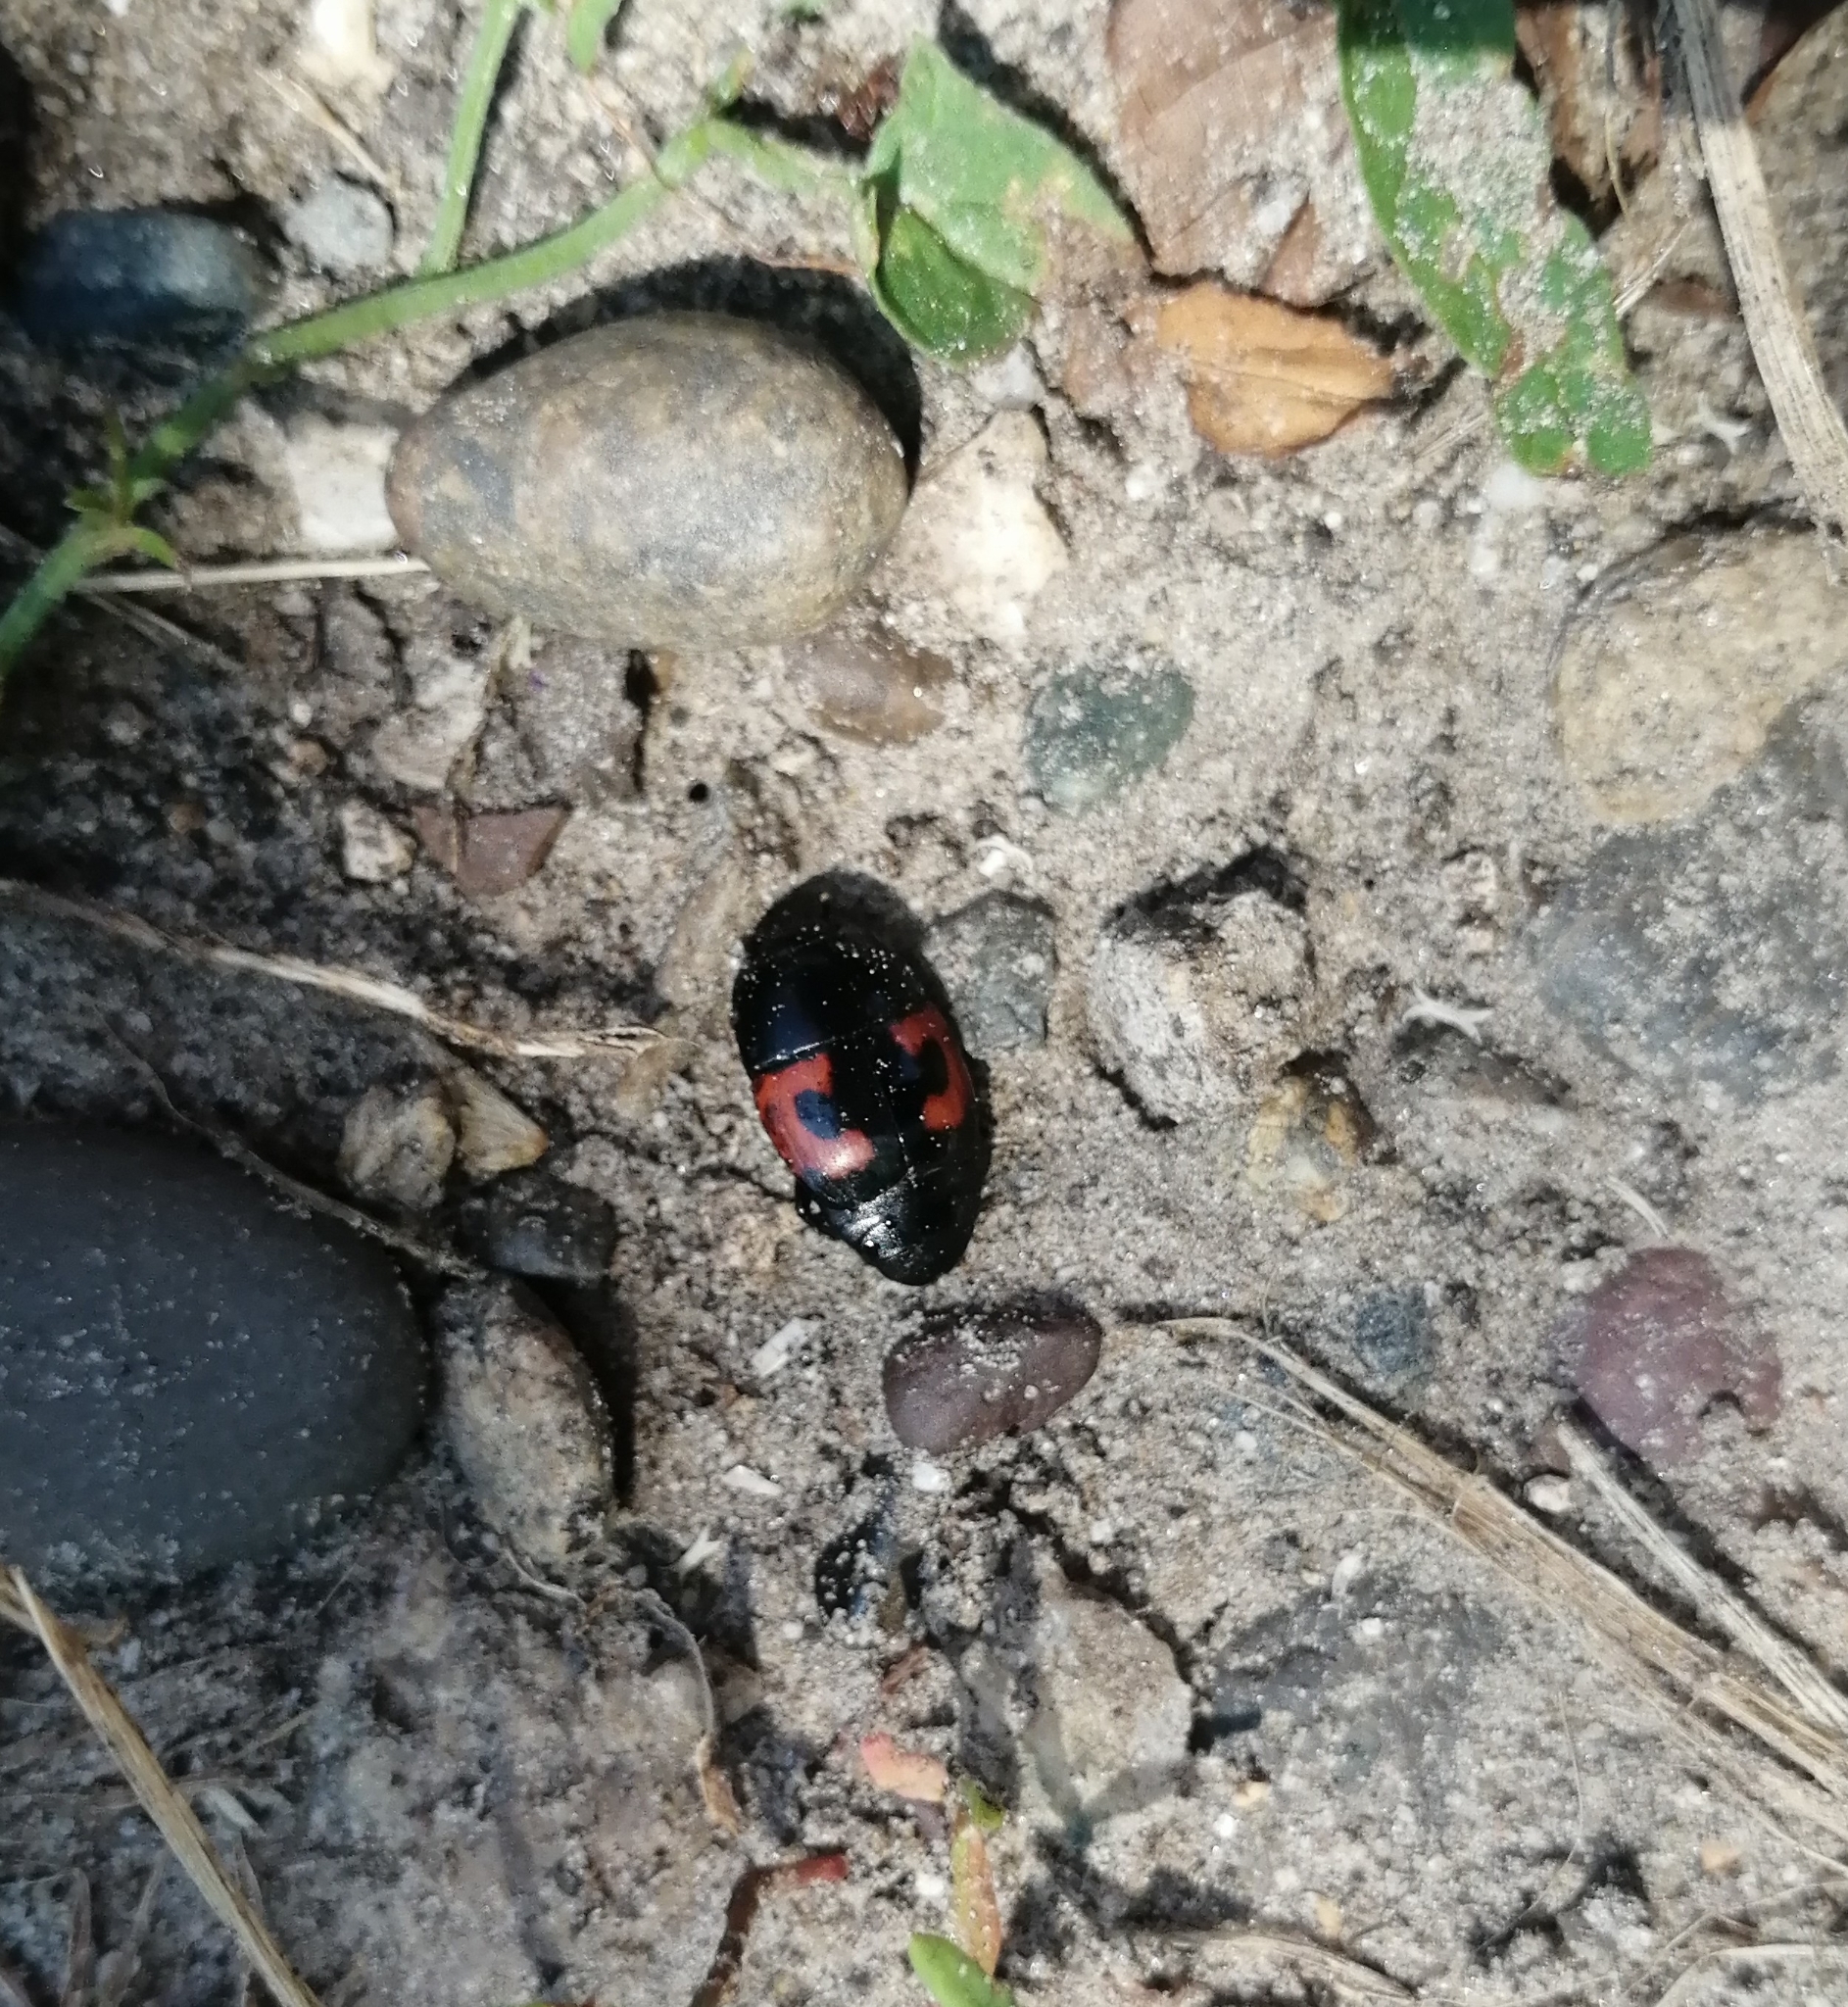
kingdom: Animalia
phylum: Arthropoda
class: Insecta
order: Coleoptera
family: Histeridae
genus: Hister
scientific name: Hister quadrimaculatus
